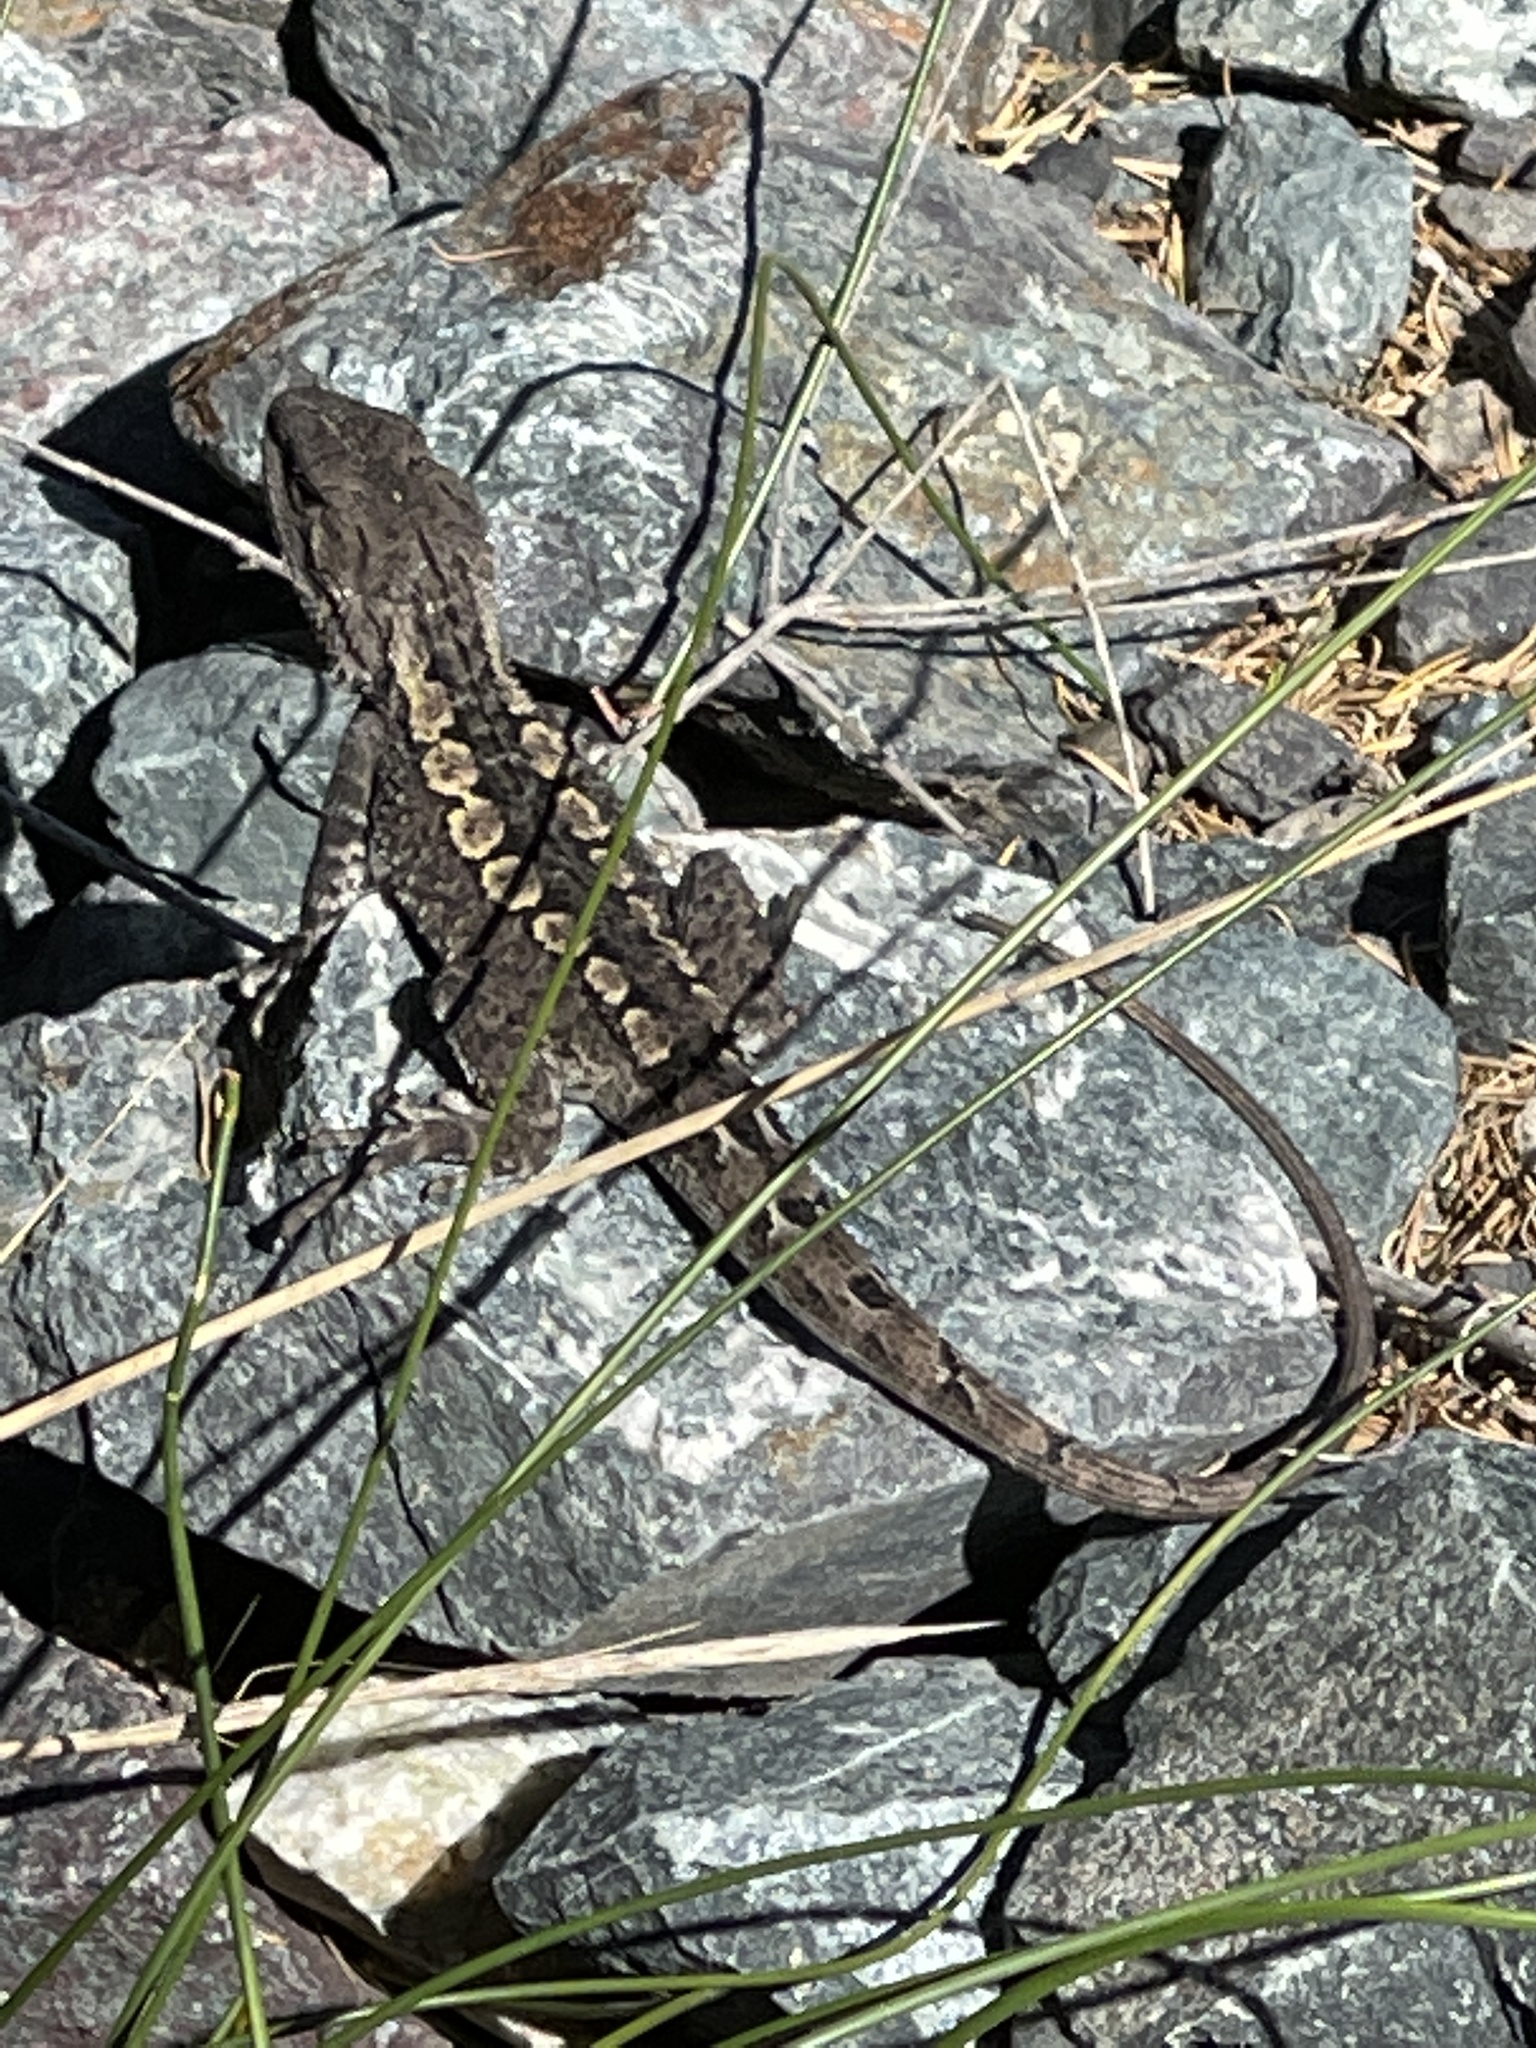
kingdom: Animalia
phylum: Chordata
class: Squamata
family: Agamidae
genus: Amphibolurus
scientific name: Amphibolurus muricatus
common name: Jacky lizard
